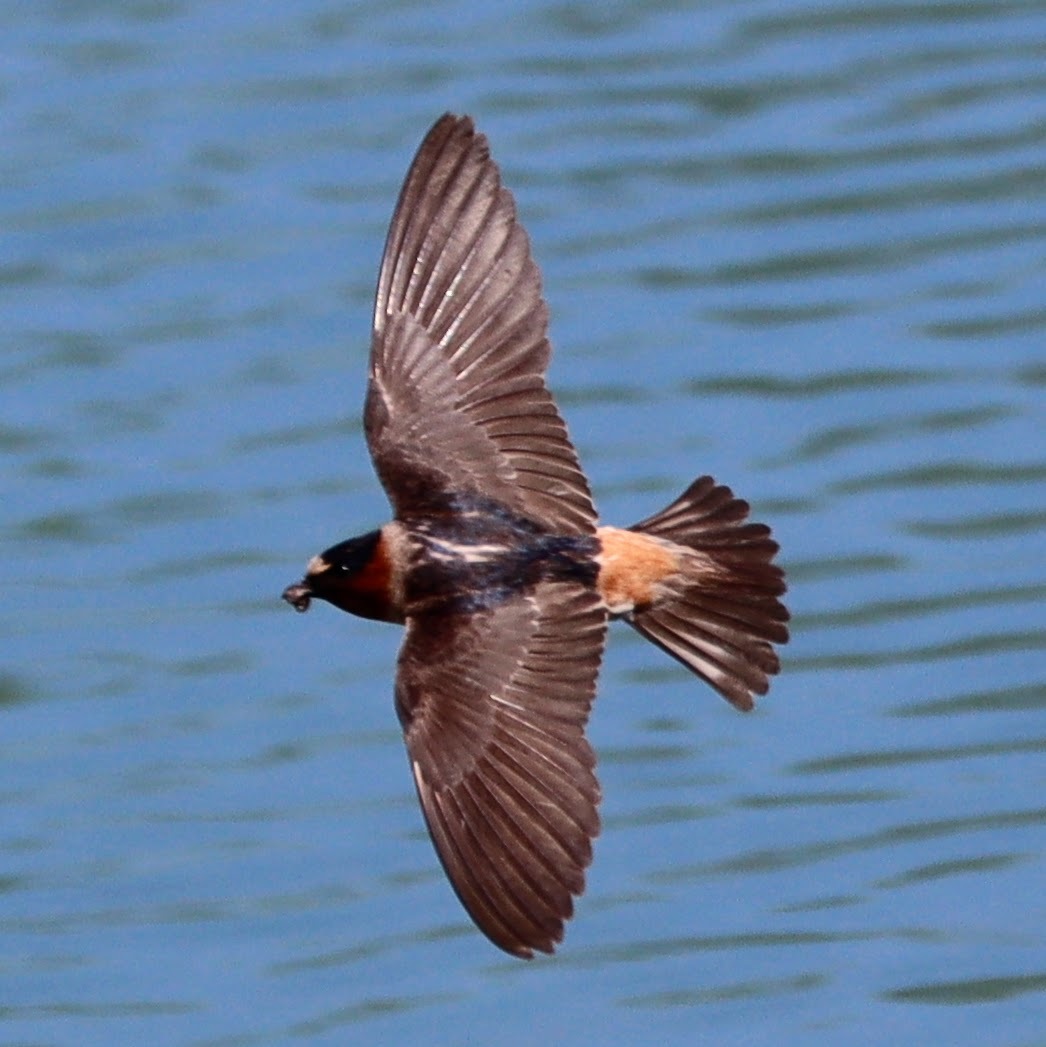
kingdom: Animalia
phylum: Chordata
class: Aves
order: Passeriformes
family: Hirundinidae
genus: Petrochelidon
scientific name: Petrochelidon pyrrhonota
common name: American cliff swallow
